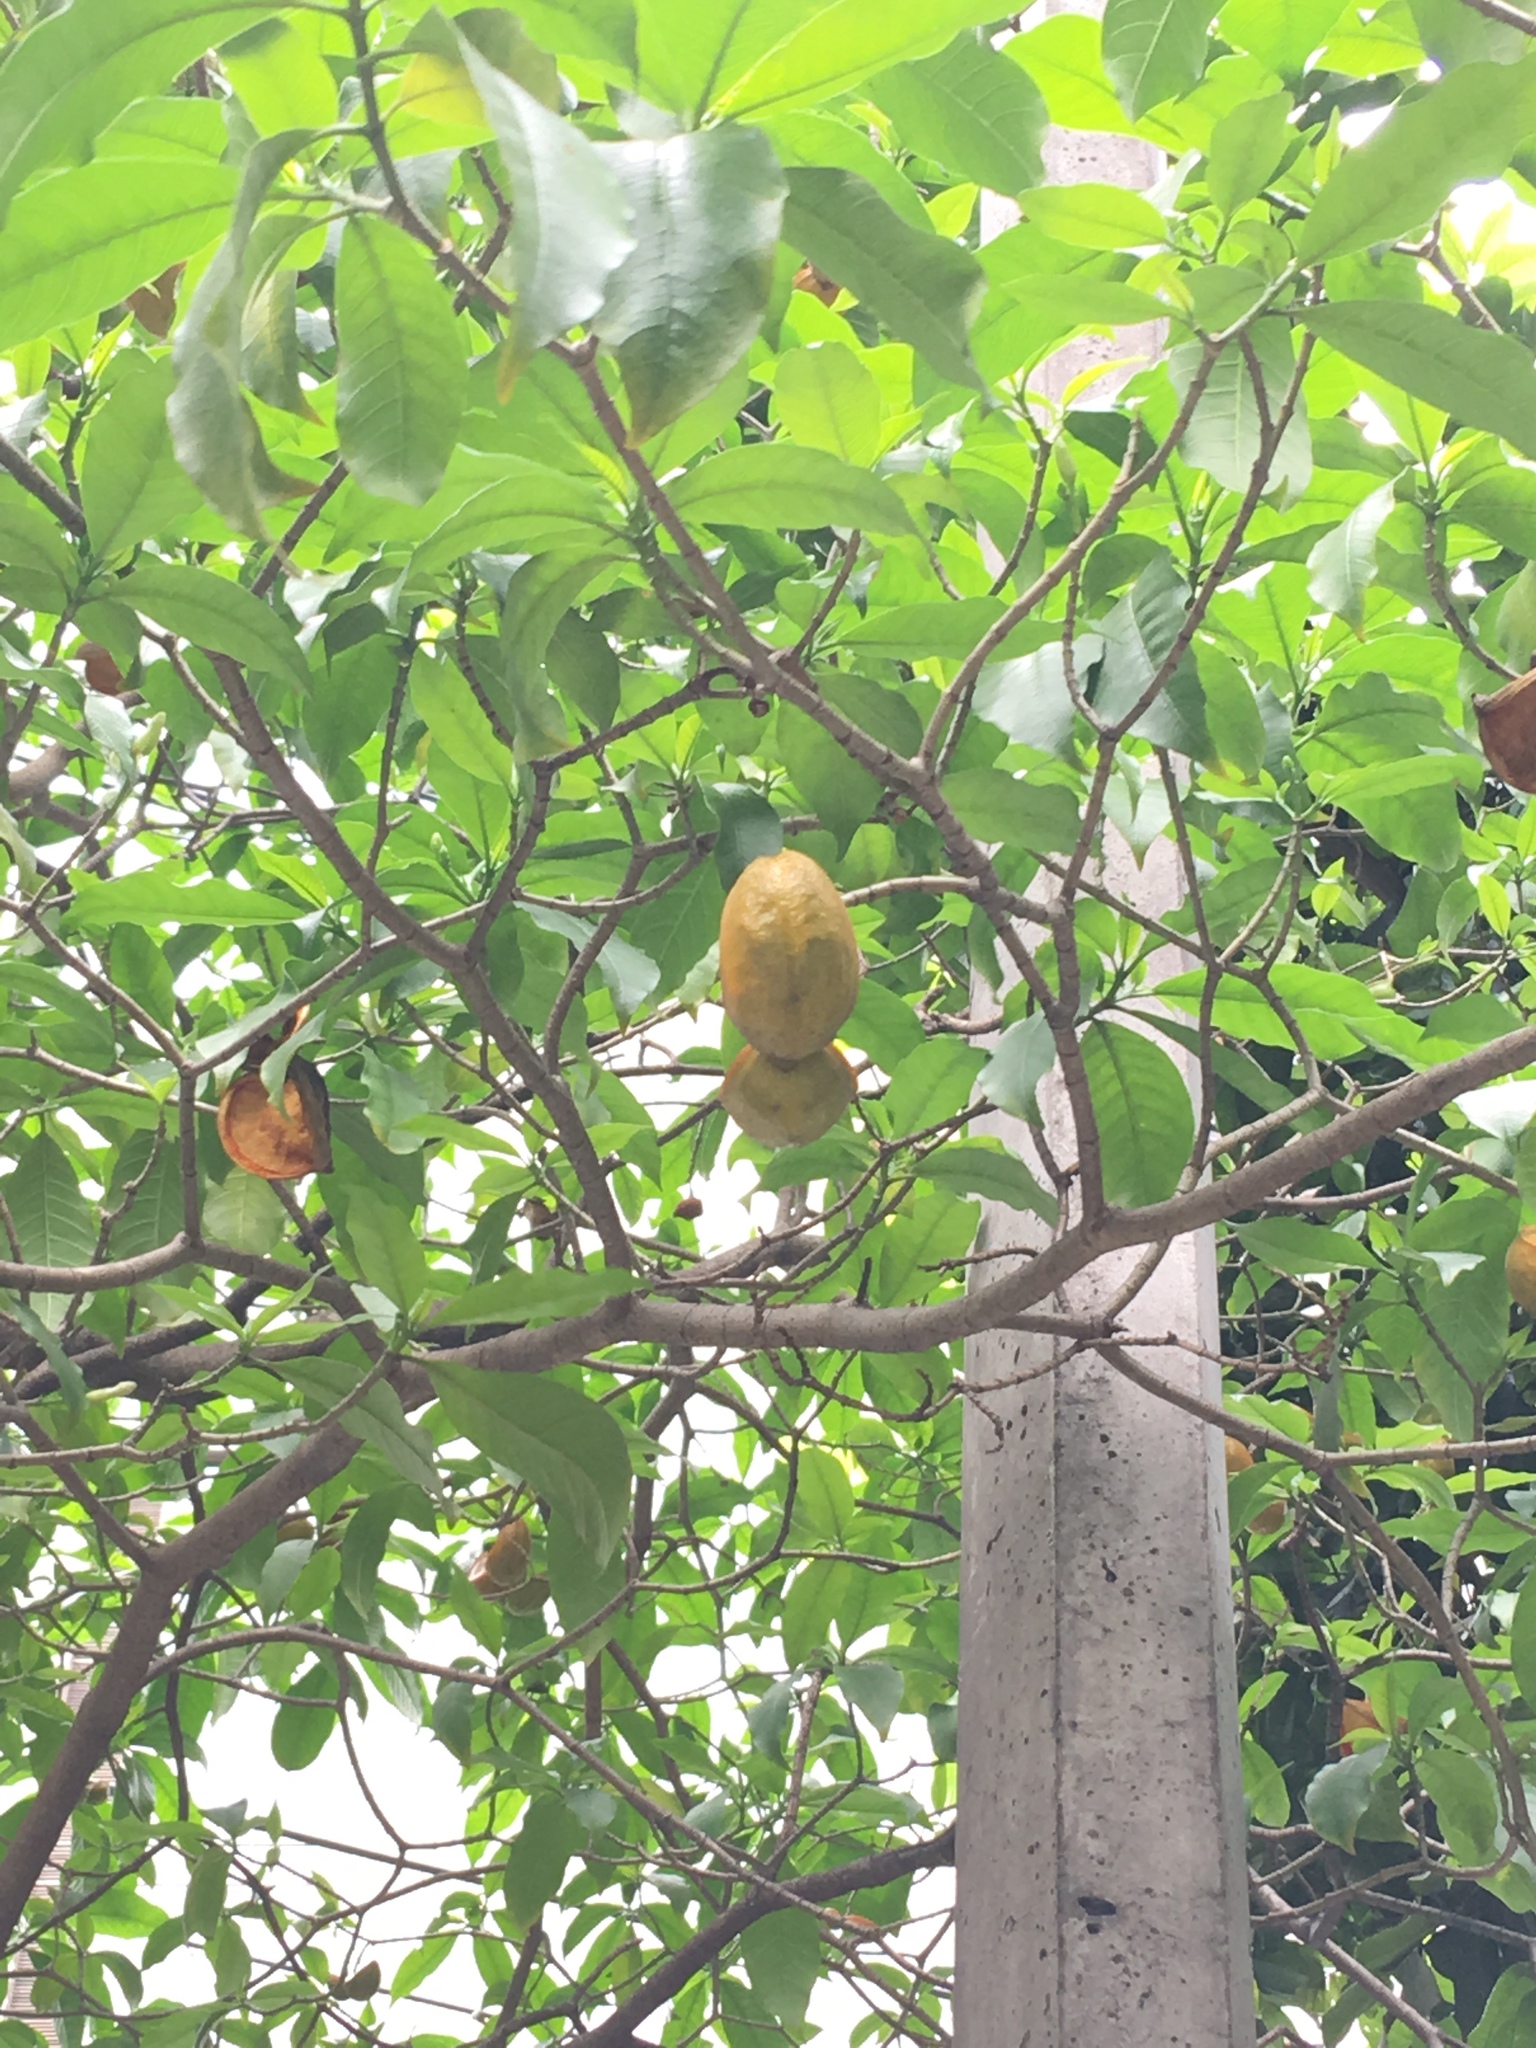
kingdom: Plantae
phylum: Tracheophyta
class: Magnoliopsida
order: Gentianales
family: Apocynaceae
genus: Tabernaemontana
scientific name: Tabernaemontana litoralis
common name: Milkwood
